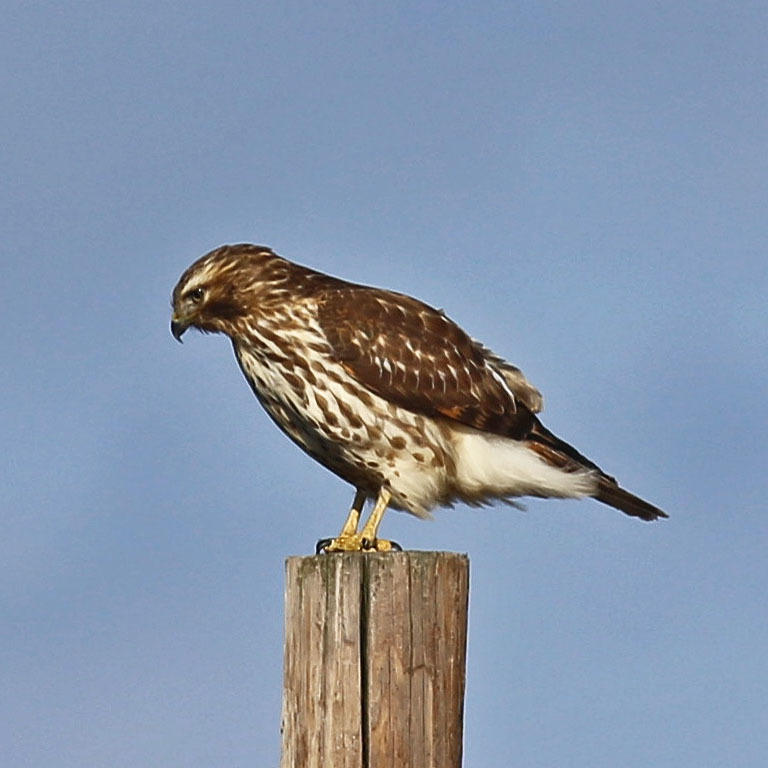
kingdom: Animalia
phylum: Chordata
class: Aves
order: Accipitriformes
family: Accipitridae
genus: Buteo
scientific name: Buteo lineatus
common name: Red-shouldered hawk
